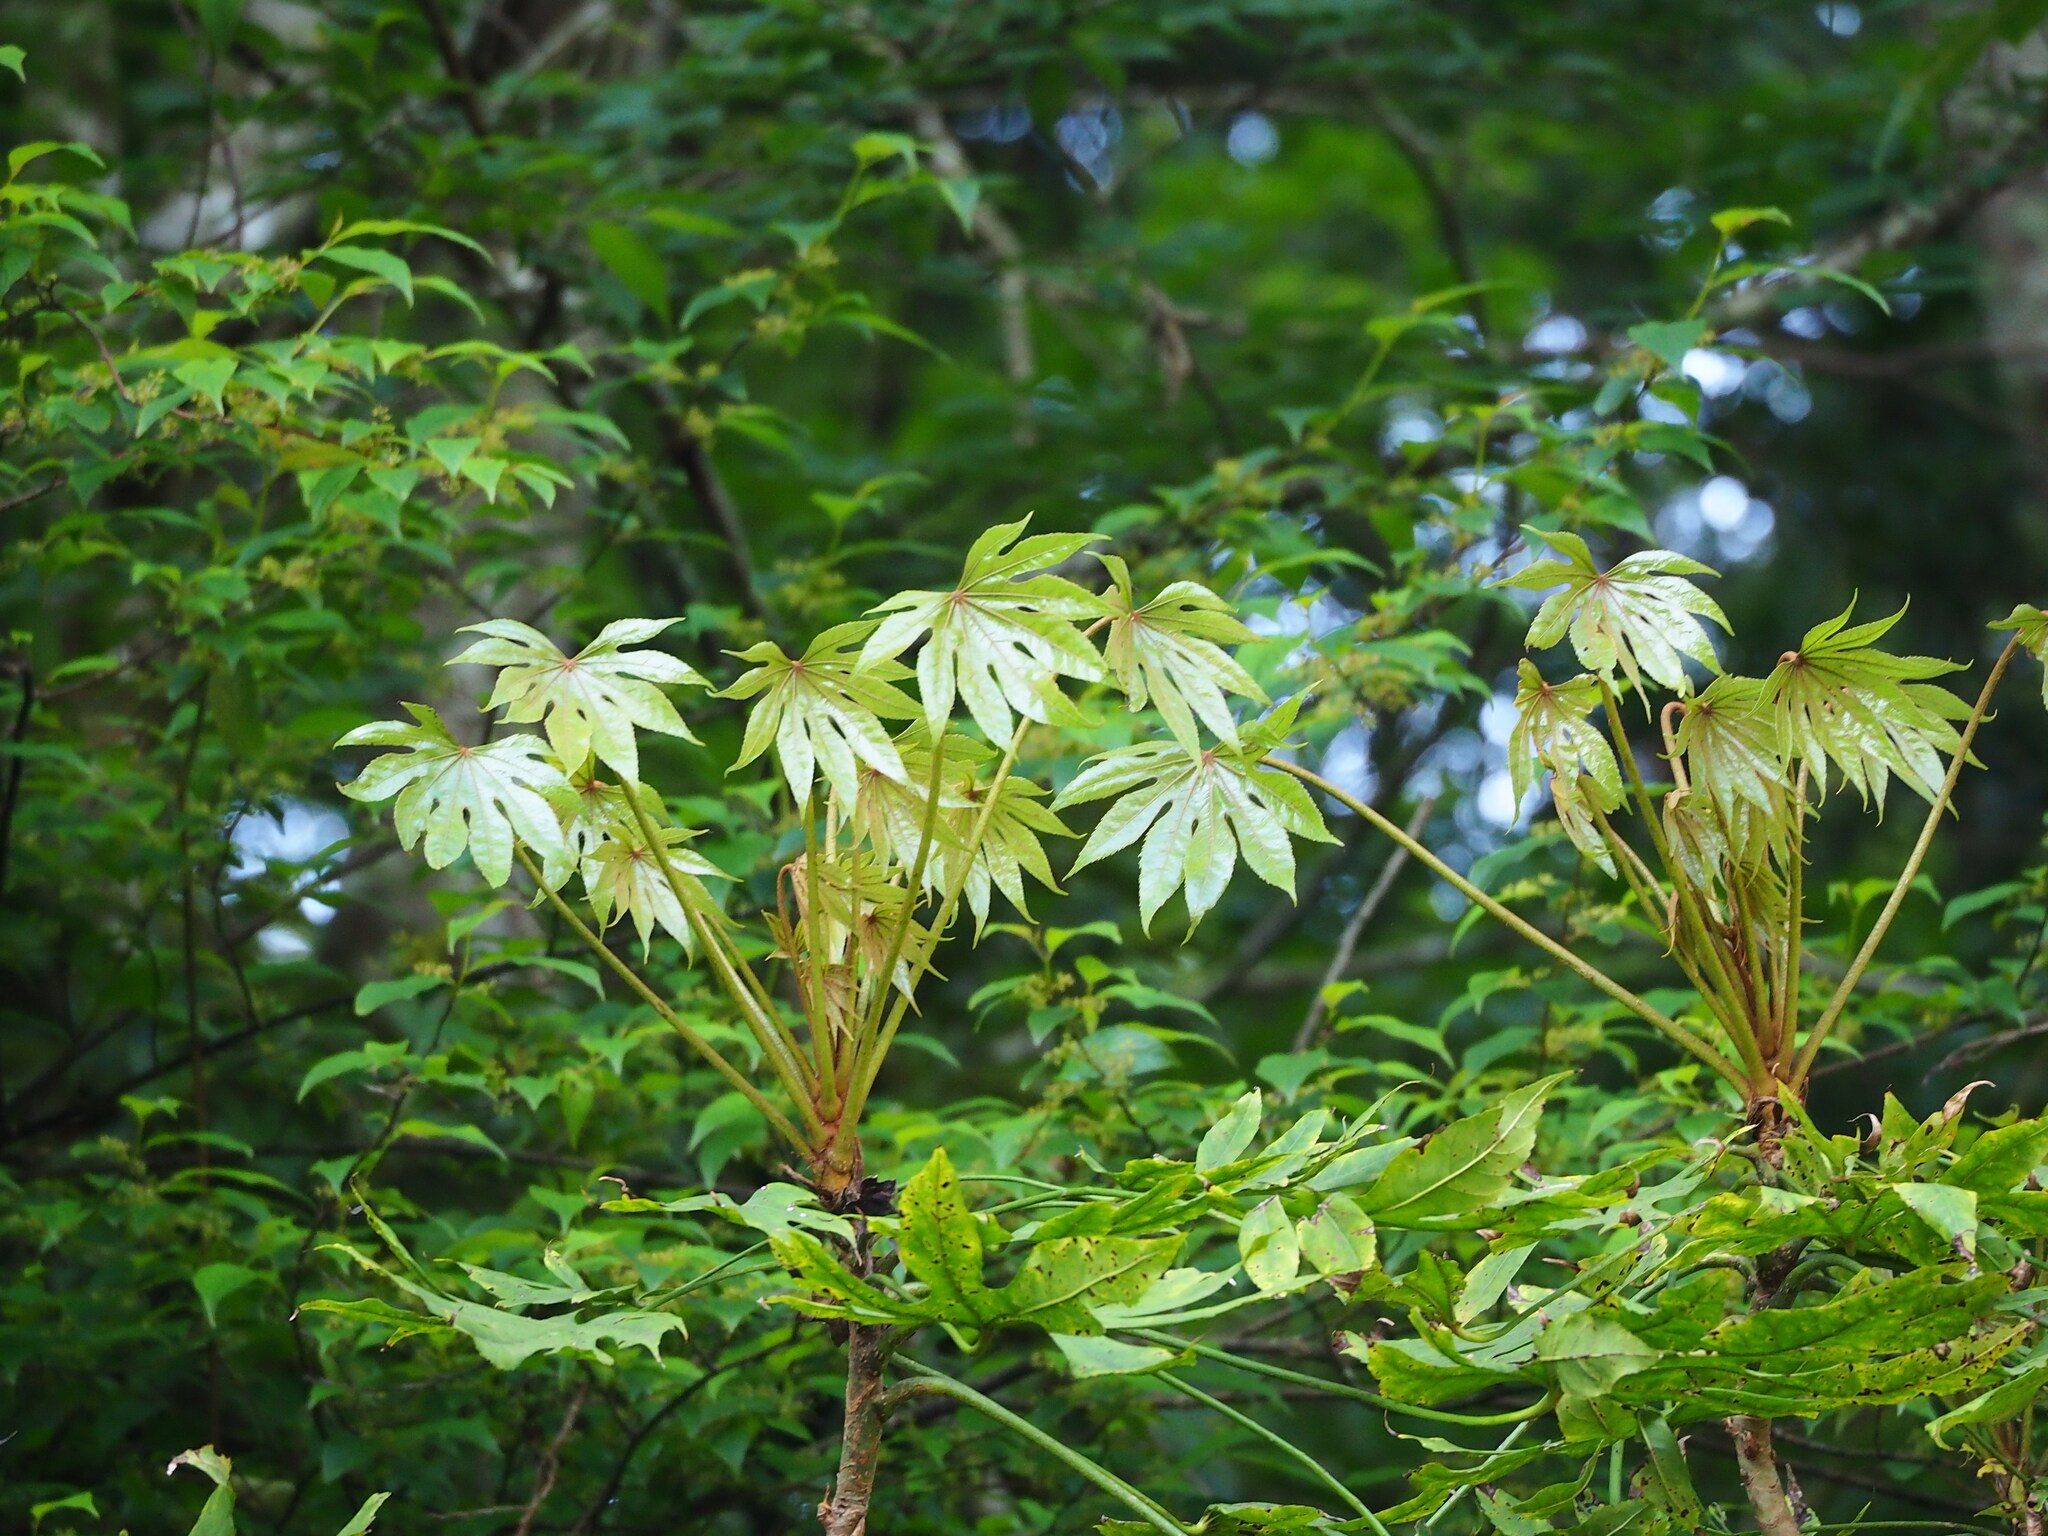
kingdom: Plantae
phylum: Tracheophyta
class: Magnoliopsida
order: Apiales
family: Araliaceae
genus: Fatsia
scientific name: Fatsia polycarpa
